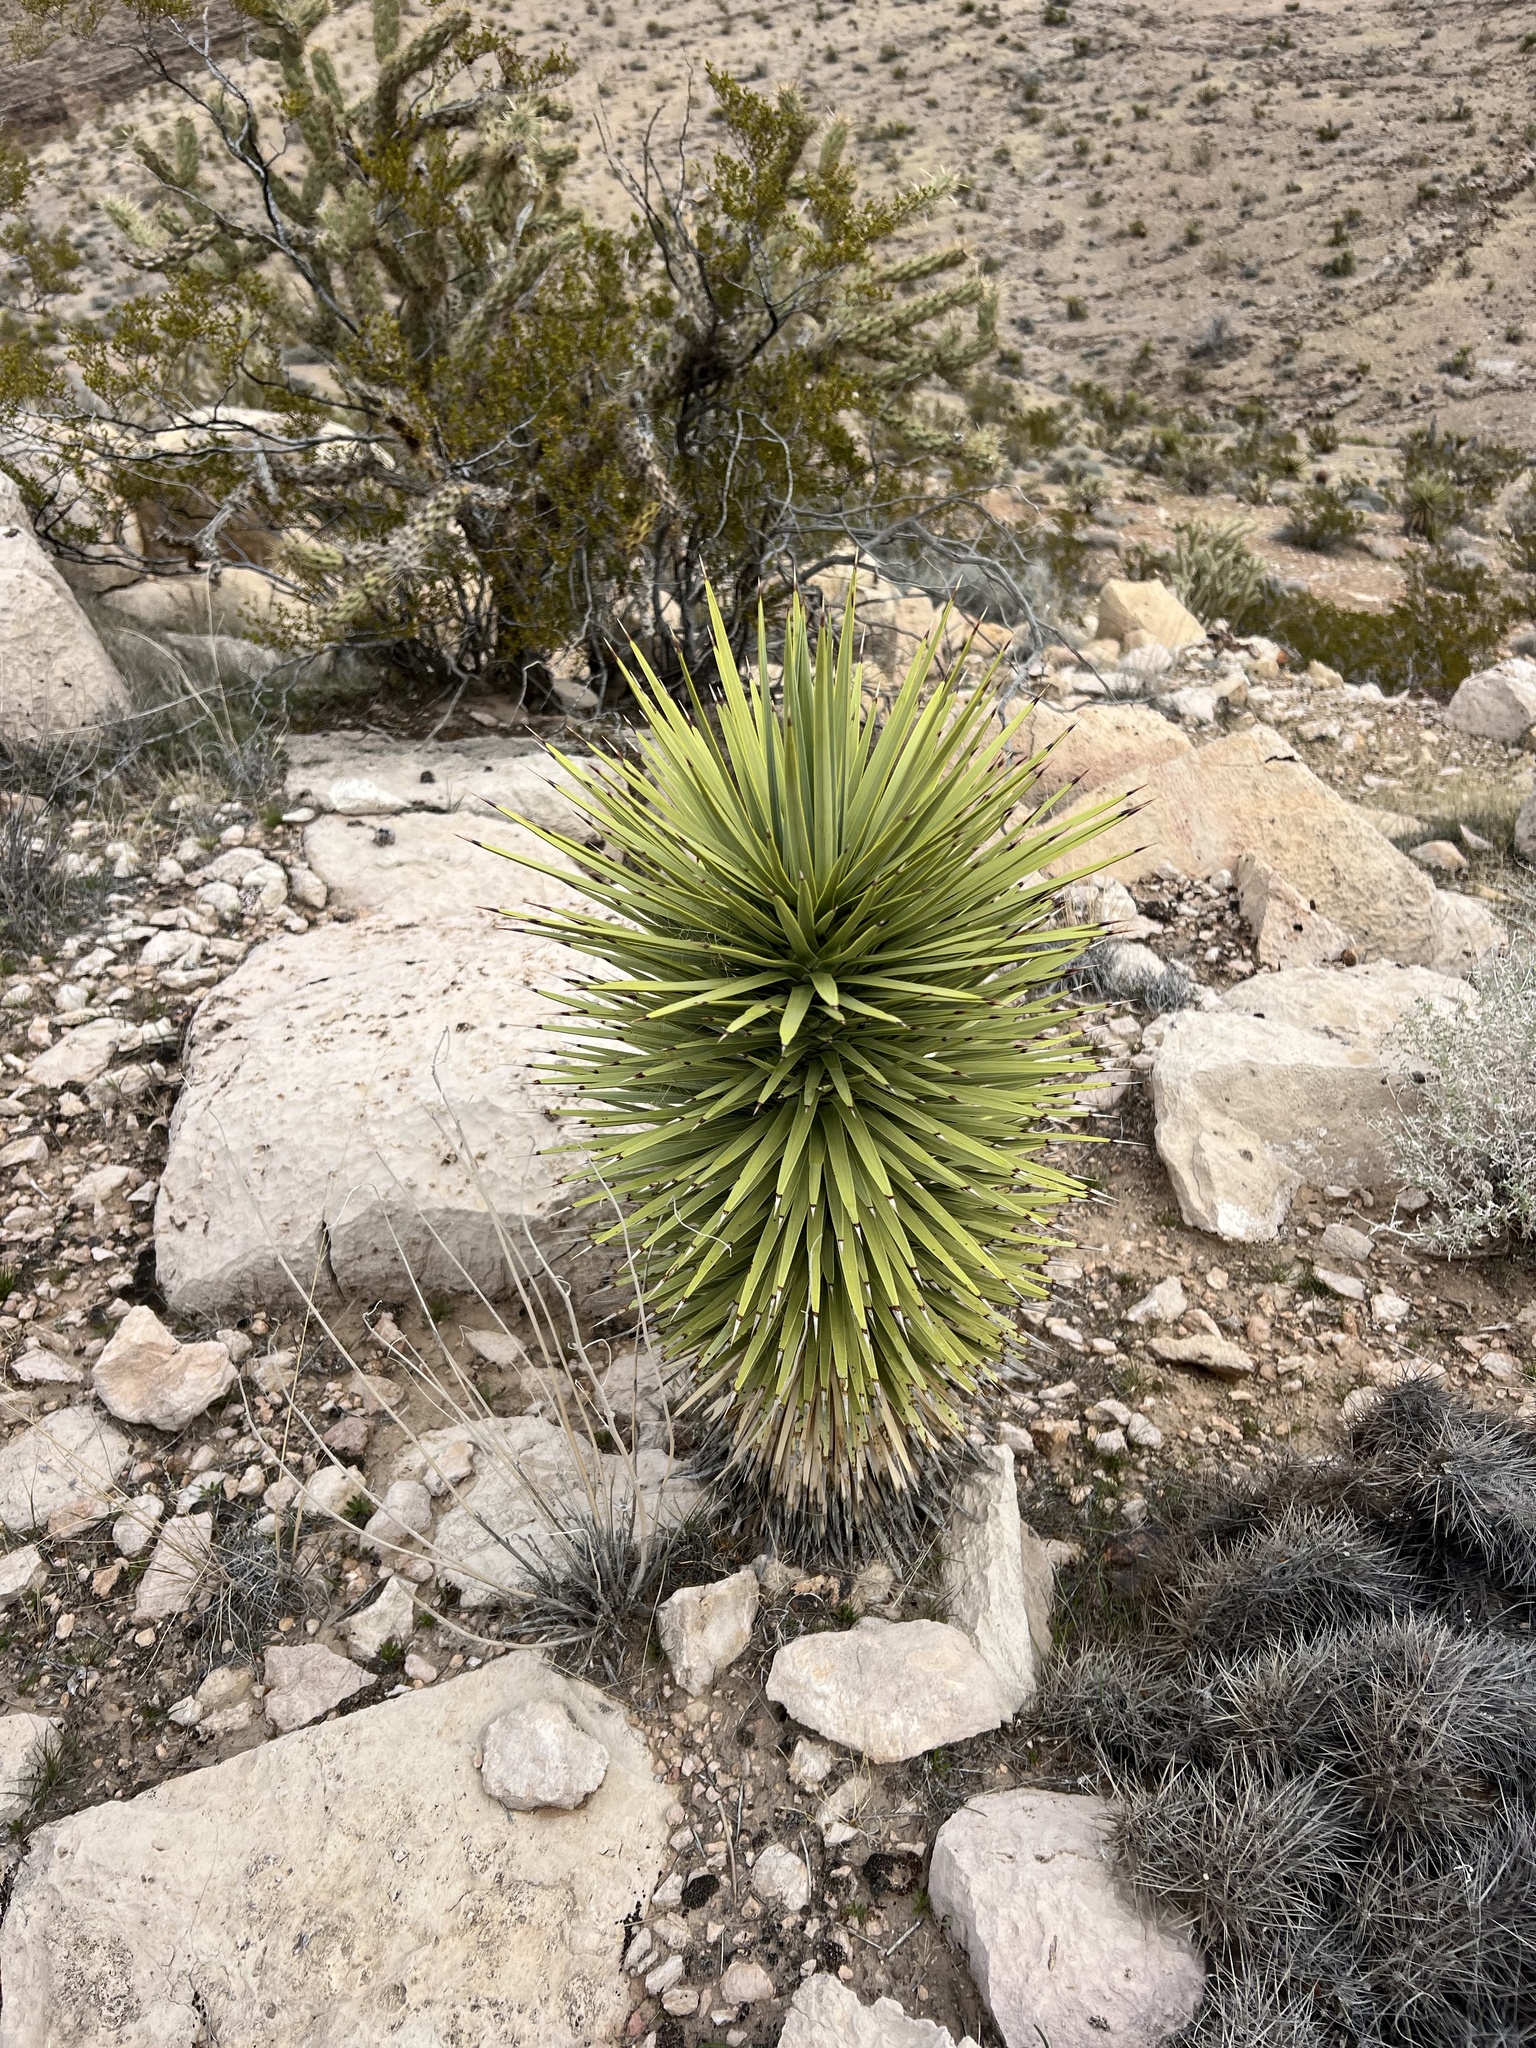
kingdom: Plantae
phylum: Tracheophyta
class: Liliopsida
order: Asparagales
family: Asparagaceae
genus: Yucca
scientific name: Yucca brevifolia
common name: Joshua tree
